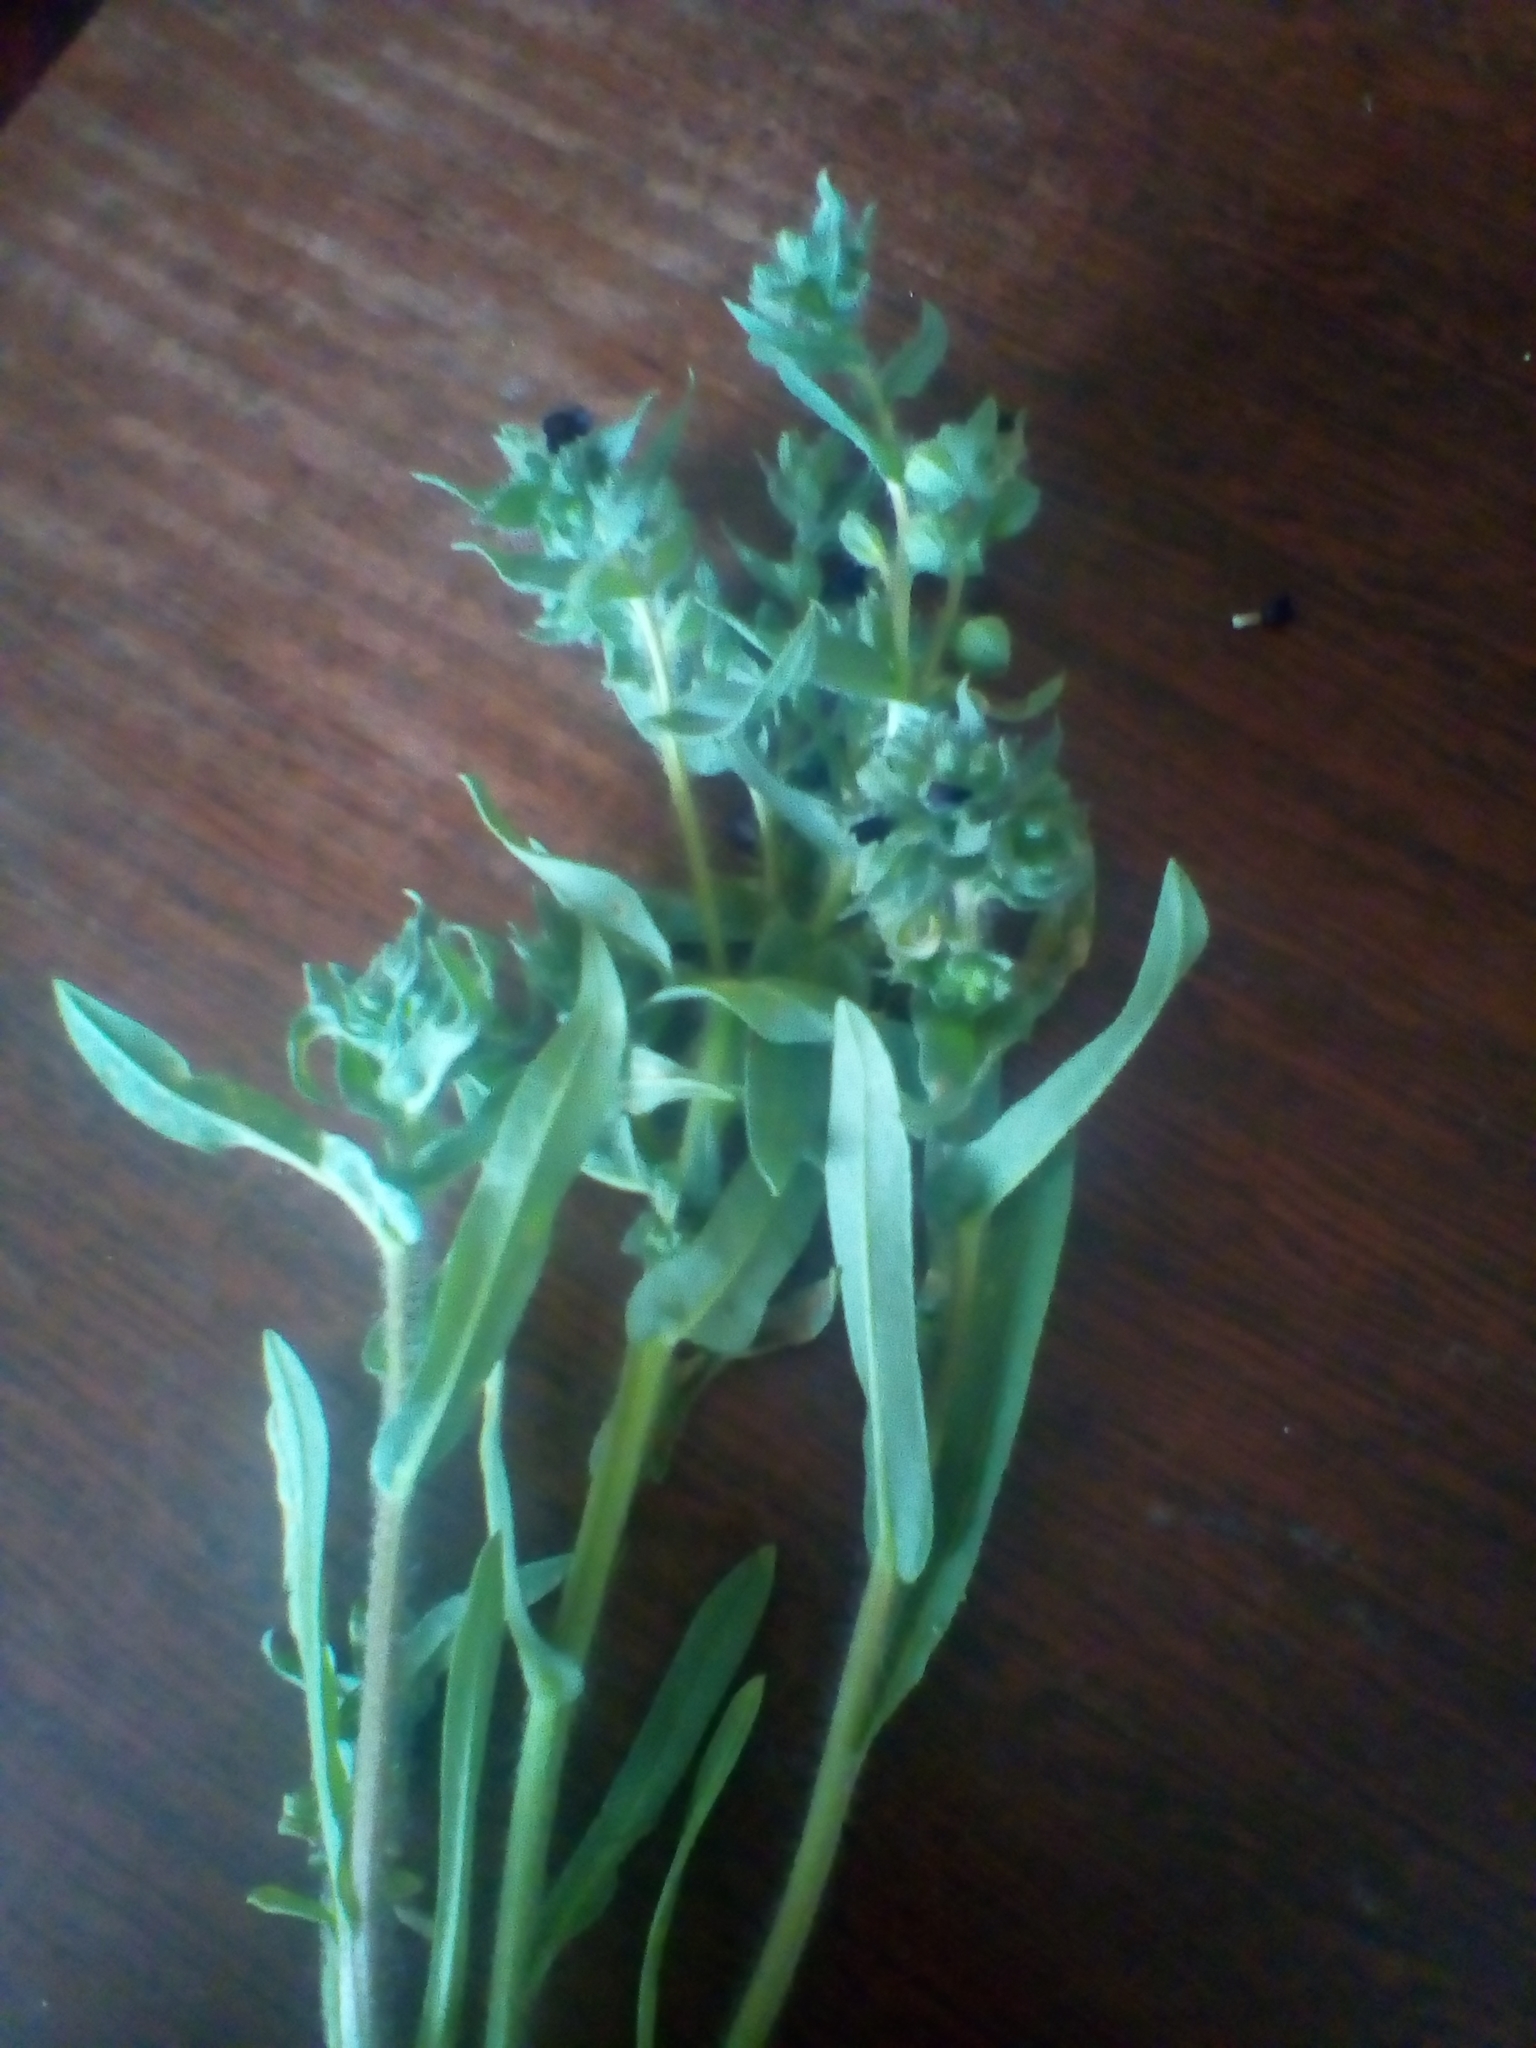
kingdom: Plantae
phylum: Tracheophyta
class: Magnoliopsida
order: Boraginales
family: Boraginaceae
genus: Nonea
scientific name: Nonea pulla
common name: Brown nonea
